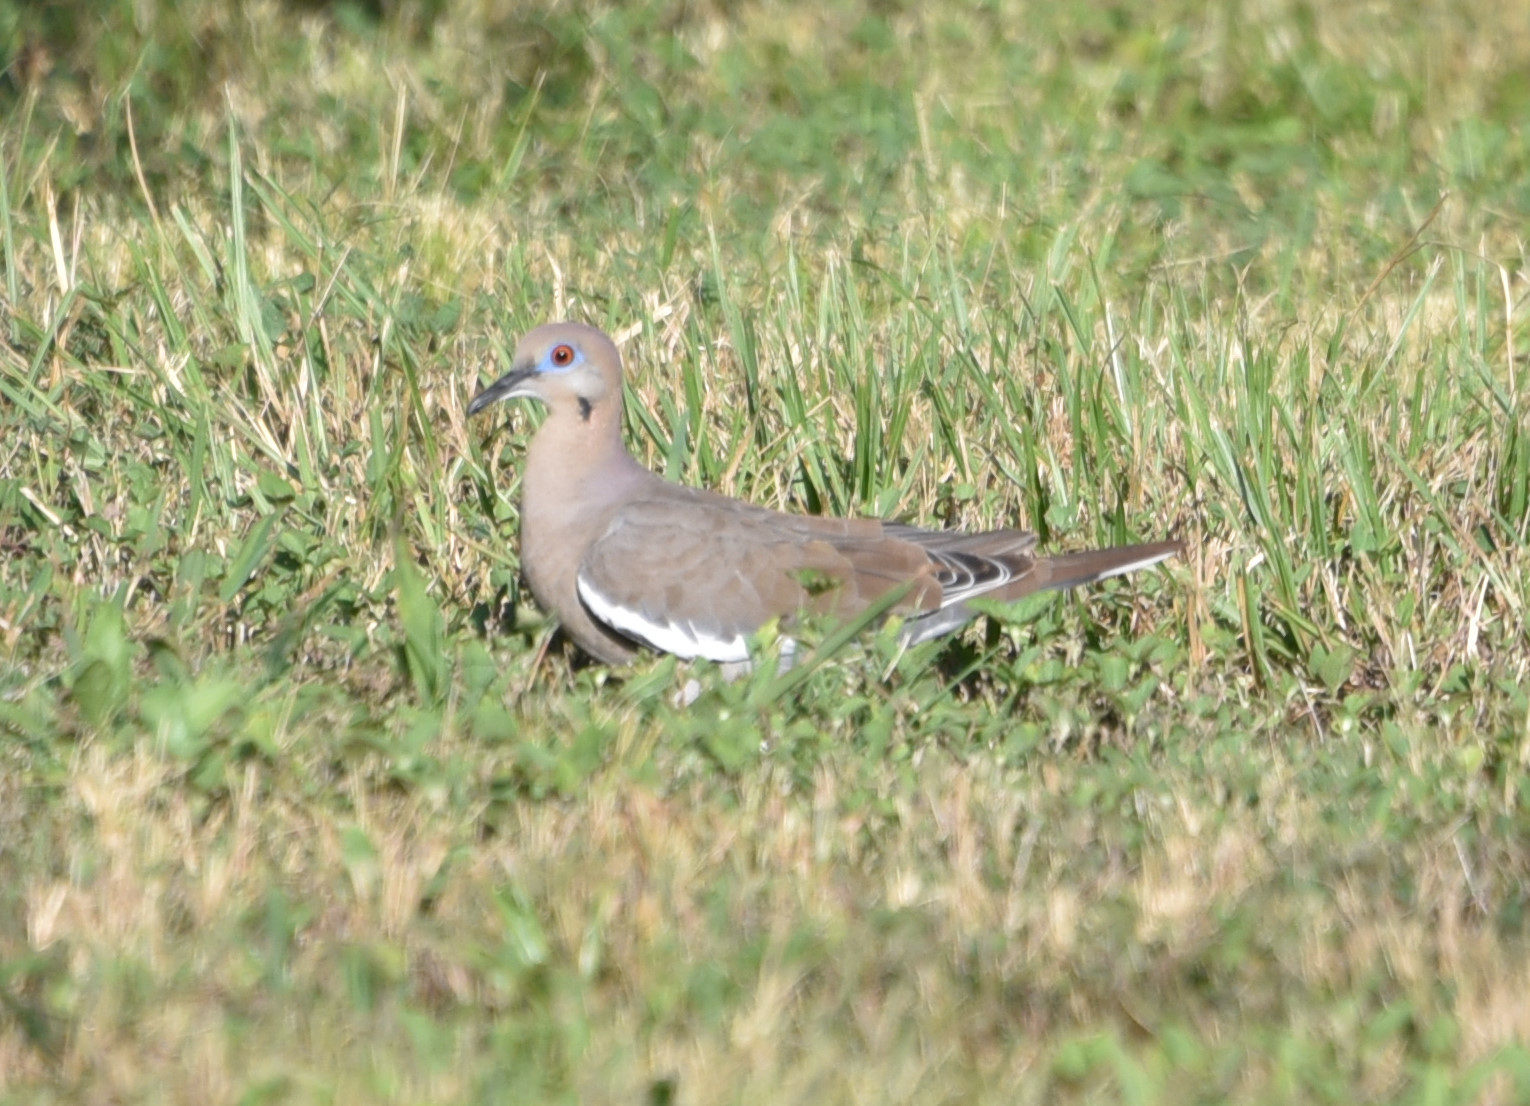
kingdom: Animalia
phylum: Chordata
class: Aves
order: Columbiformes
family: Columbidae
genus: Zenaida
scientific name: Zenaida asiatica
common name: White-winged dove
